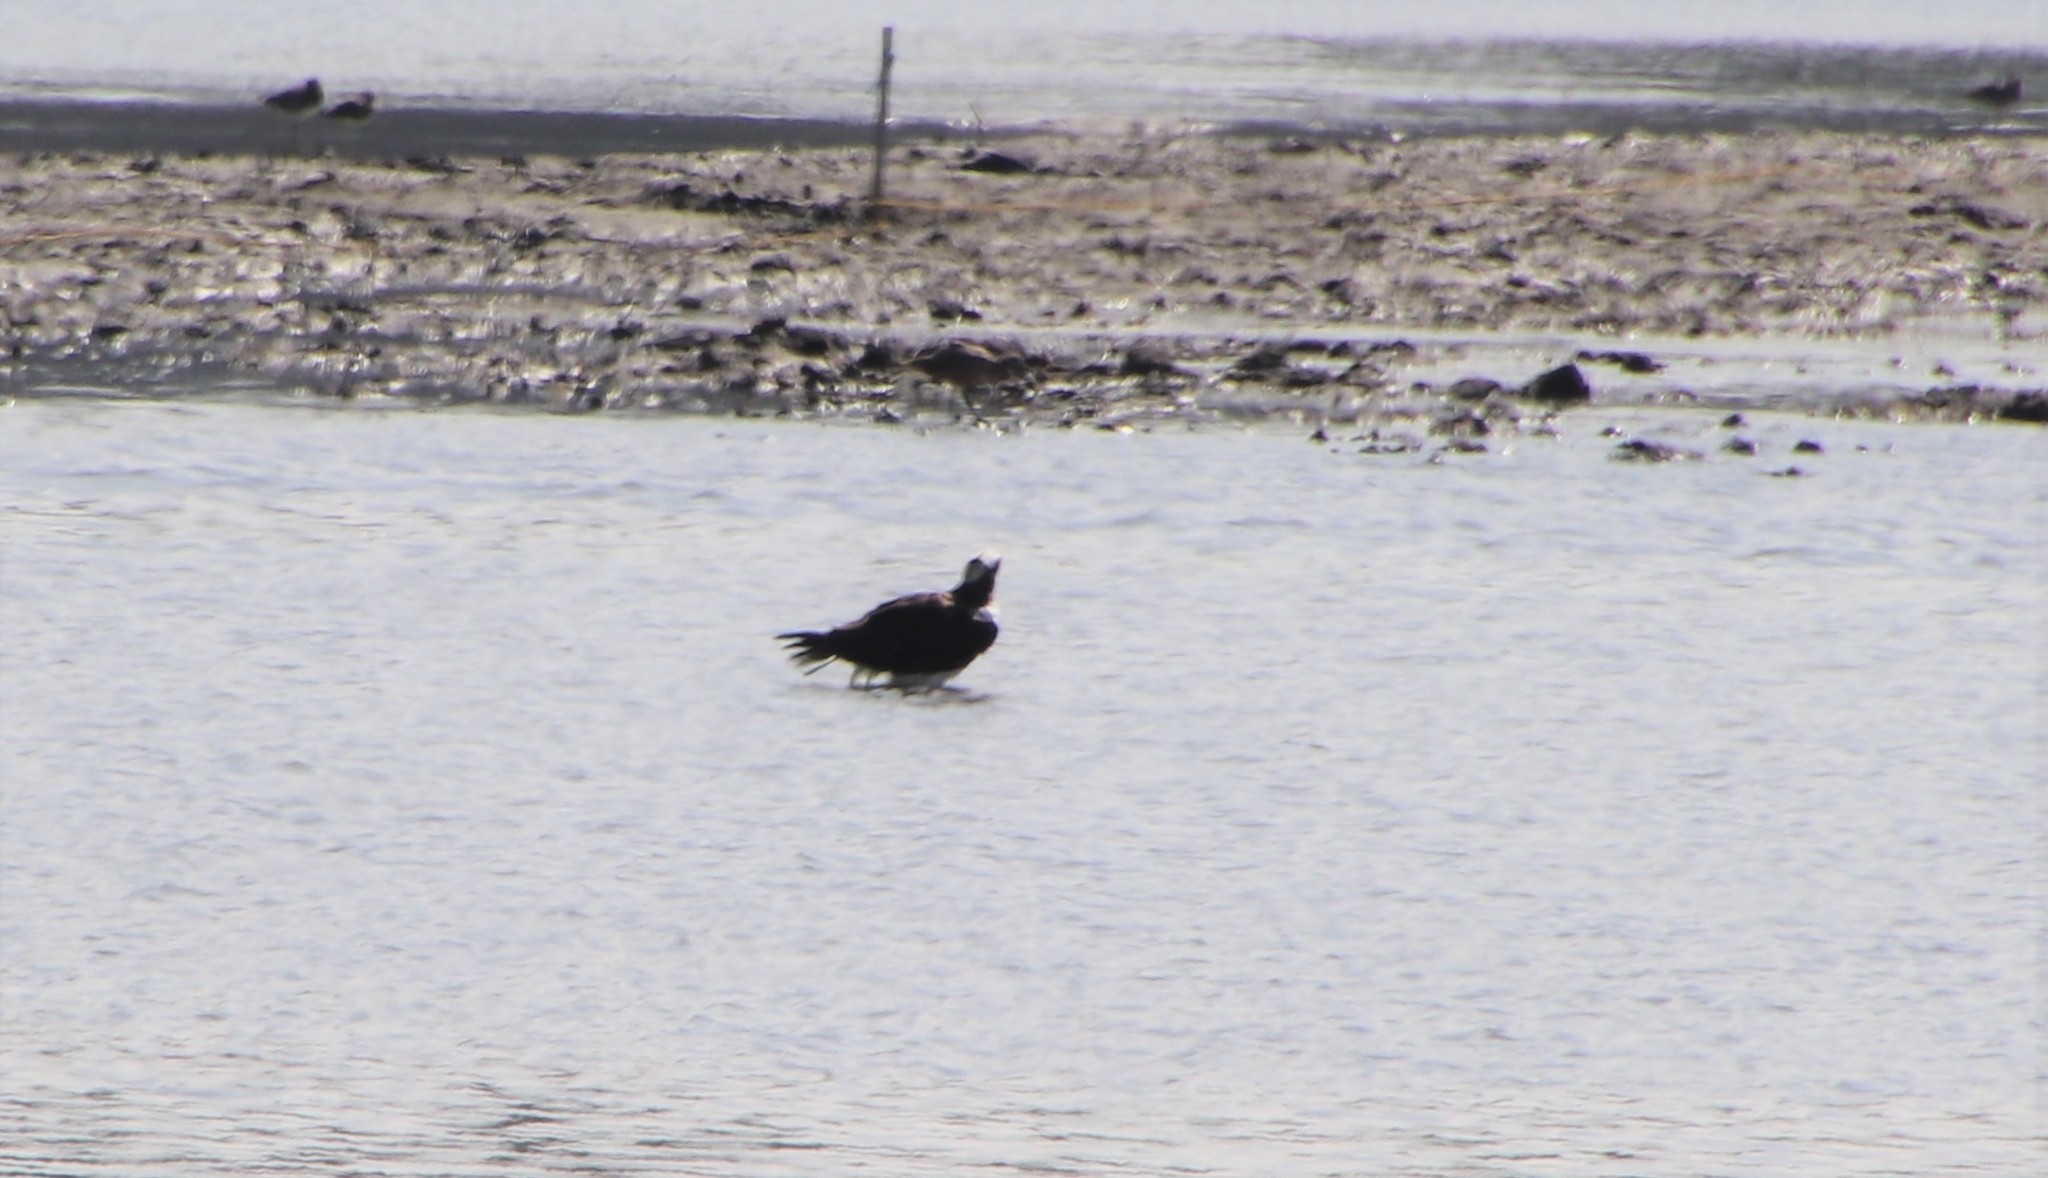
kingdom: Animalia
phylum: Chordata
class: Aves
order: Accipitriformes
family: Pandionidae
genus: Pandion
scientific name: Pandion haliaetus
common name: Osprey
